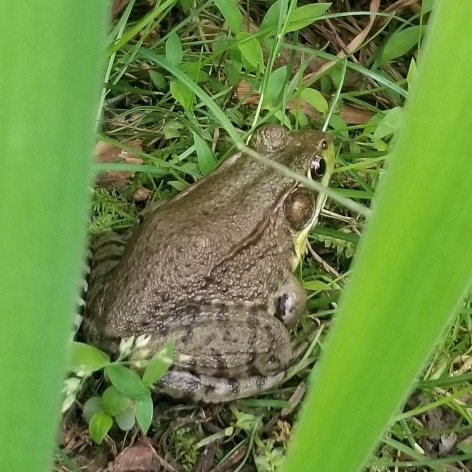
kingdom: Animalia
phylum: Chordata
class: Amphibia
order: Anura
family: Ranidae
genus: Lithobates
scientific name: Lithobates clamitans
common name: Green frog
